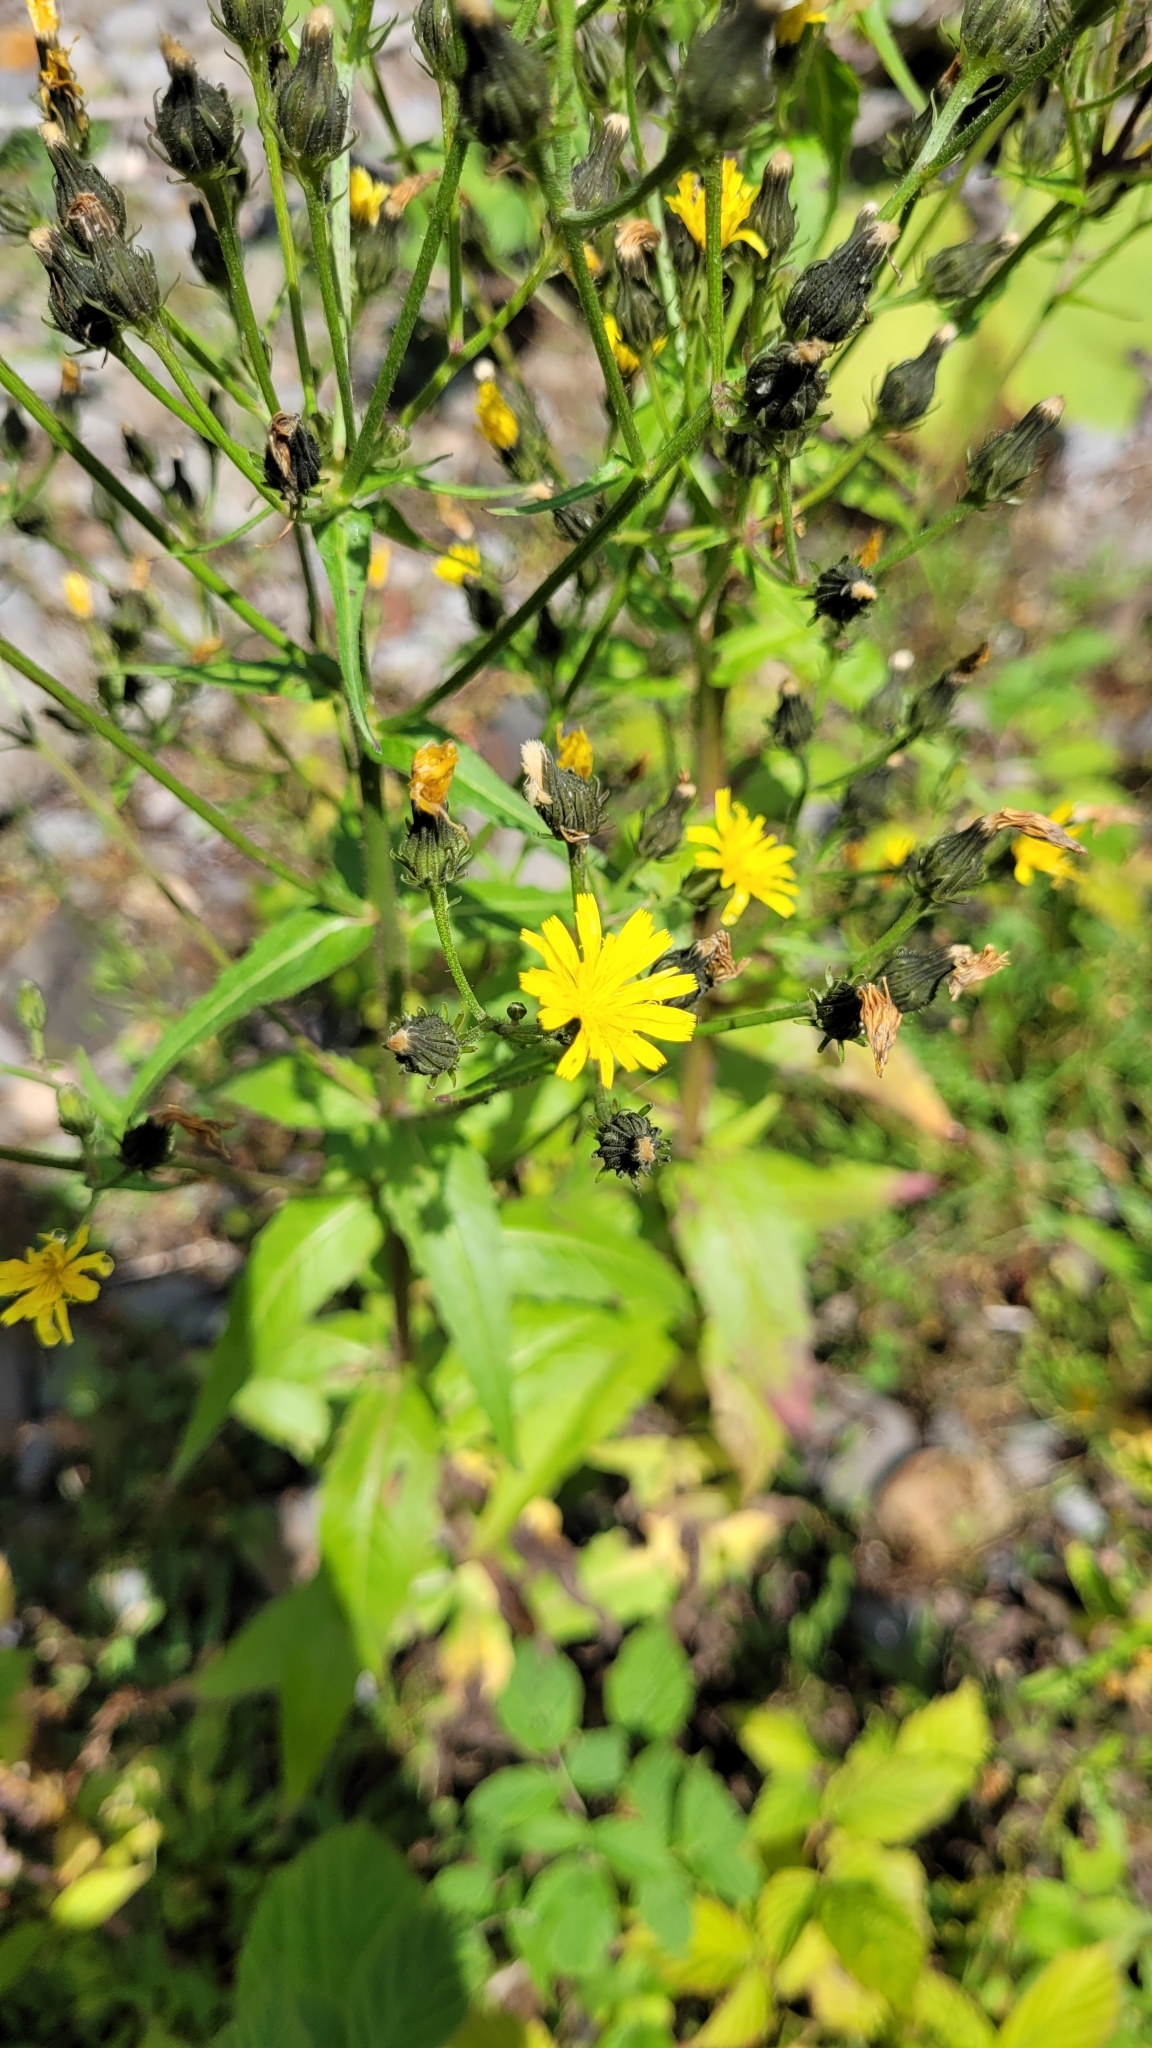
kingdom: Plantae
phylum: Tracheophyta
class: Magnoliopsida
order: Asterales
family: Asteraceae
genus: Picris
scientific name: Picris japonica
